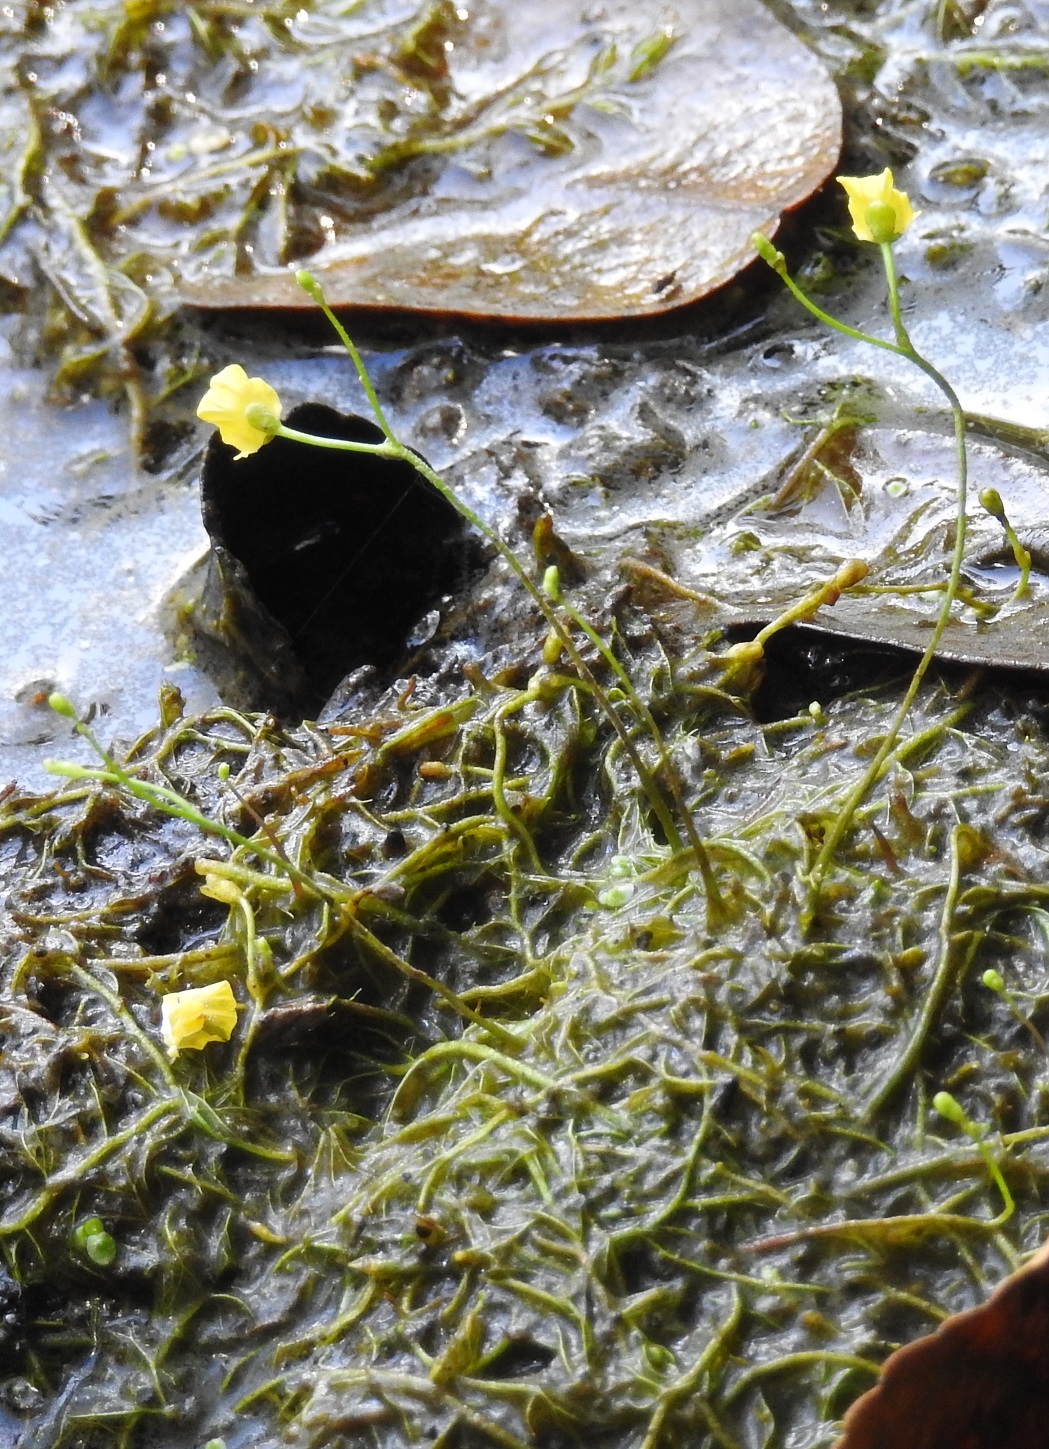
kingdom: Plantae
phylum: Tracheophyta
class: Magnoliopsida
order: Lamiales
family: Lentibulariaceae
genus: Utricularia
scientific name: Utricularia gibba
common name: Humped bladderwort
